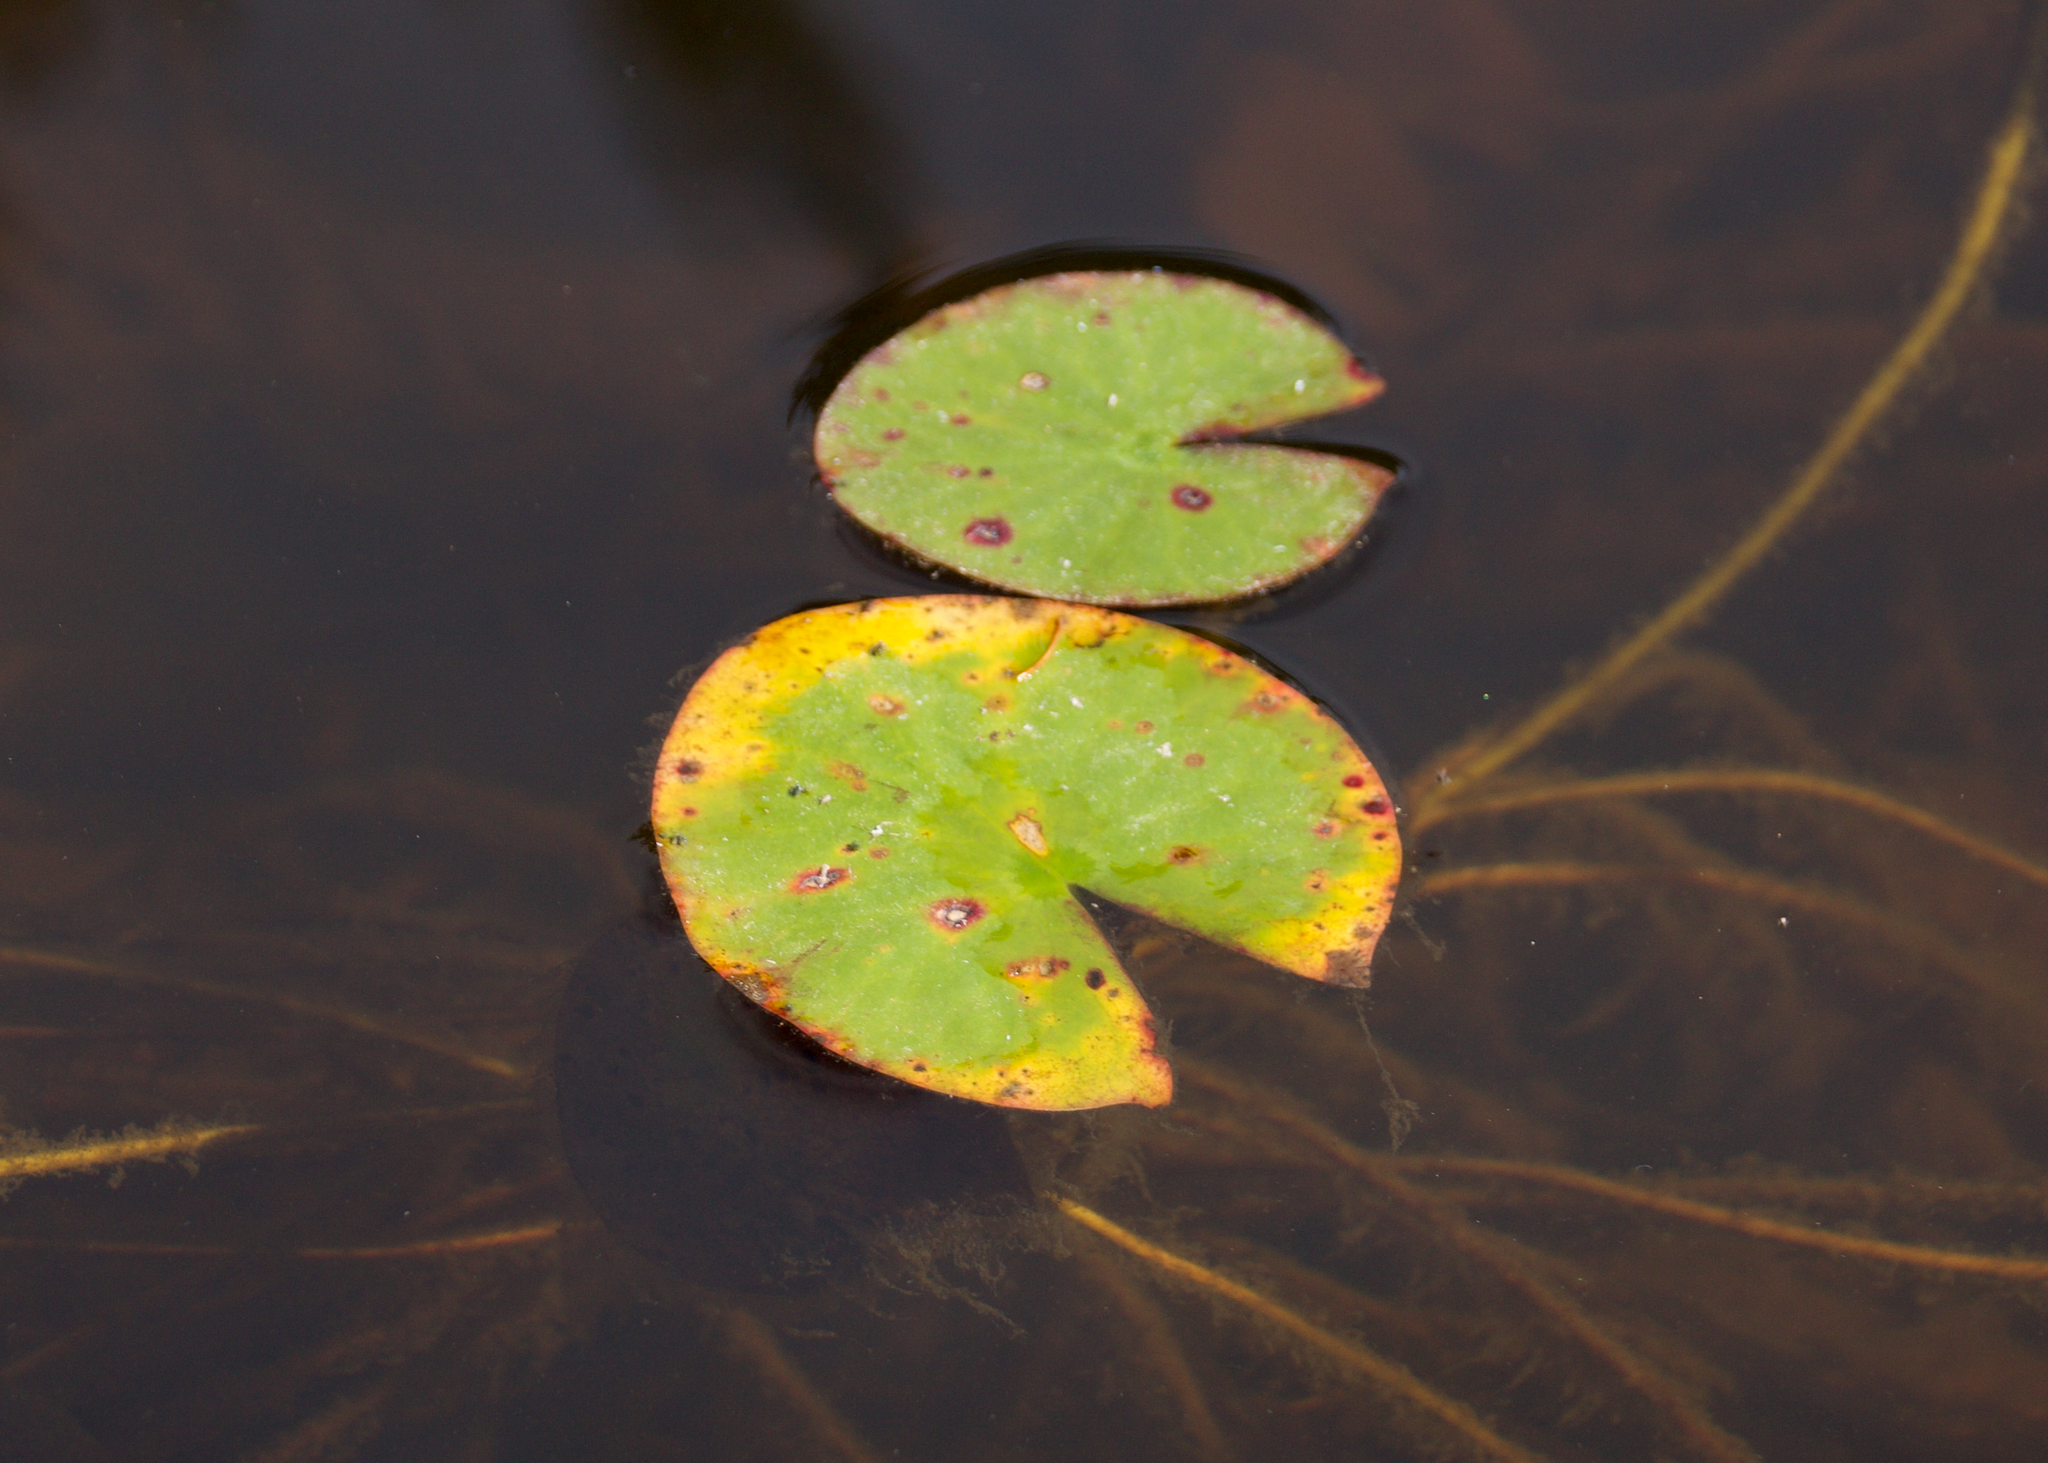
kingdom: Plantae
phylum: Tracheophyta
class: Magnoliopsida
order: Nymphaeales
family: Nymphaeaceae
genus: Nymphaea
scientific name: Nymphaea odorata
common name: Fragrant water-lily
